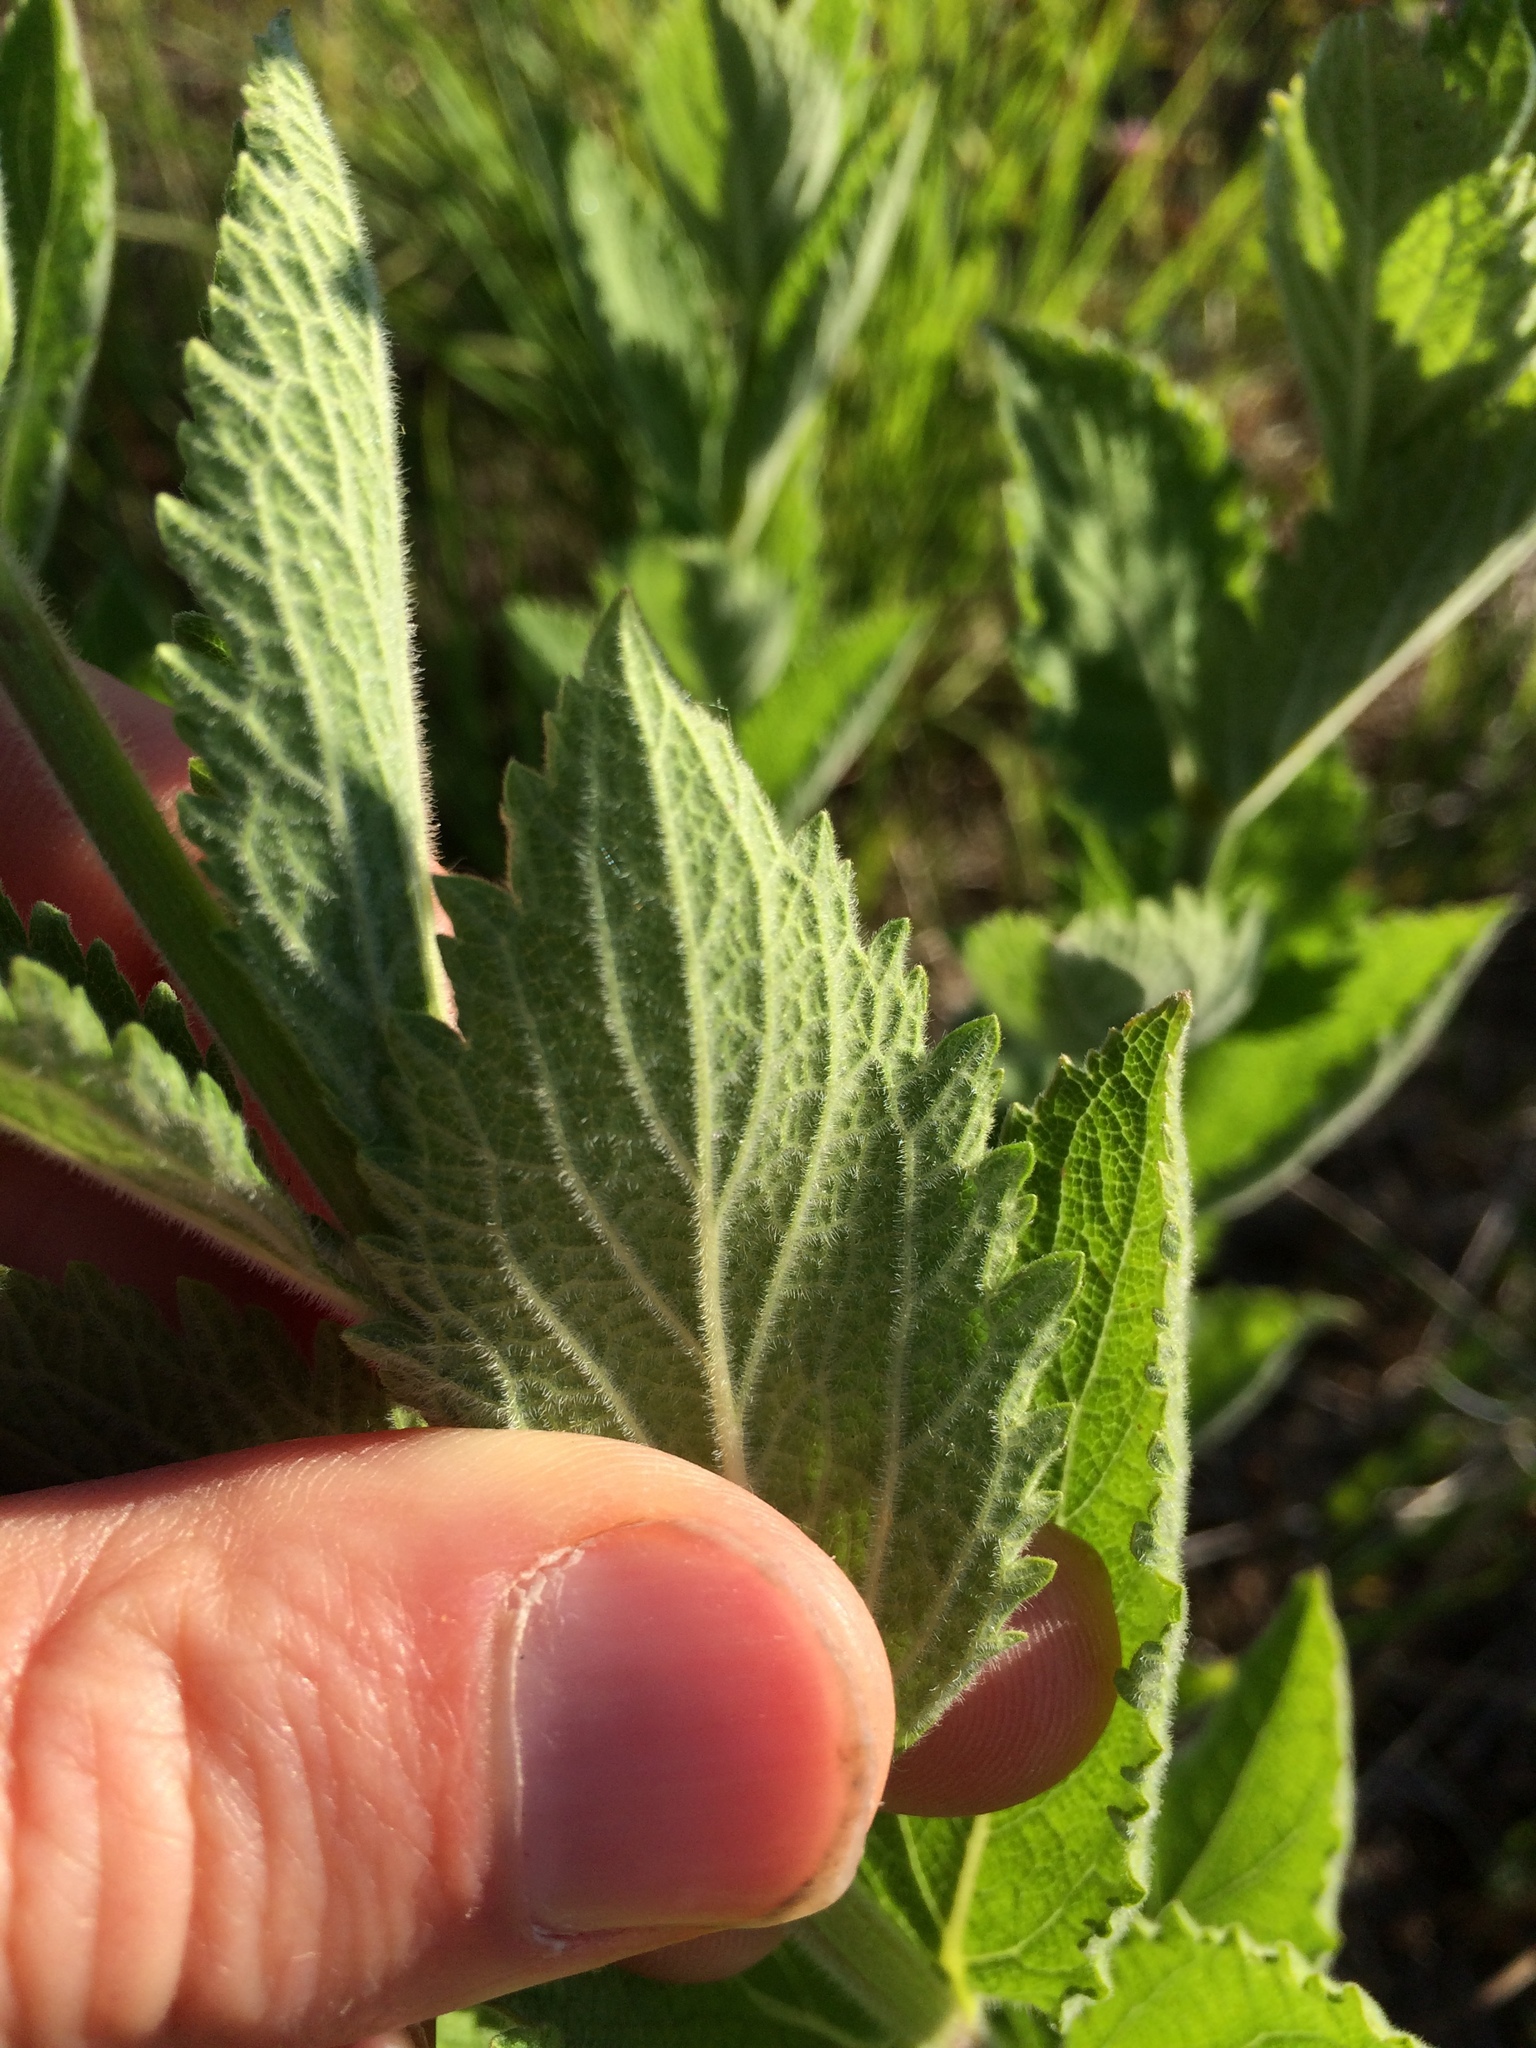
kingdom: Plantae
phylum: Tracheophyta
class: Magnoliopsida
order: Lamiales
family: Verbenaceae
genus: Verbena
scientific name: Verbena stricta
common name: Hoary vervain
